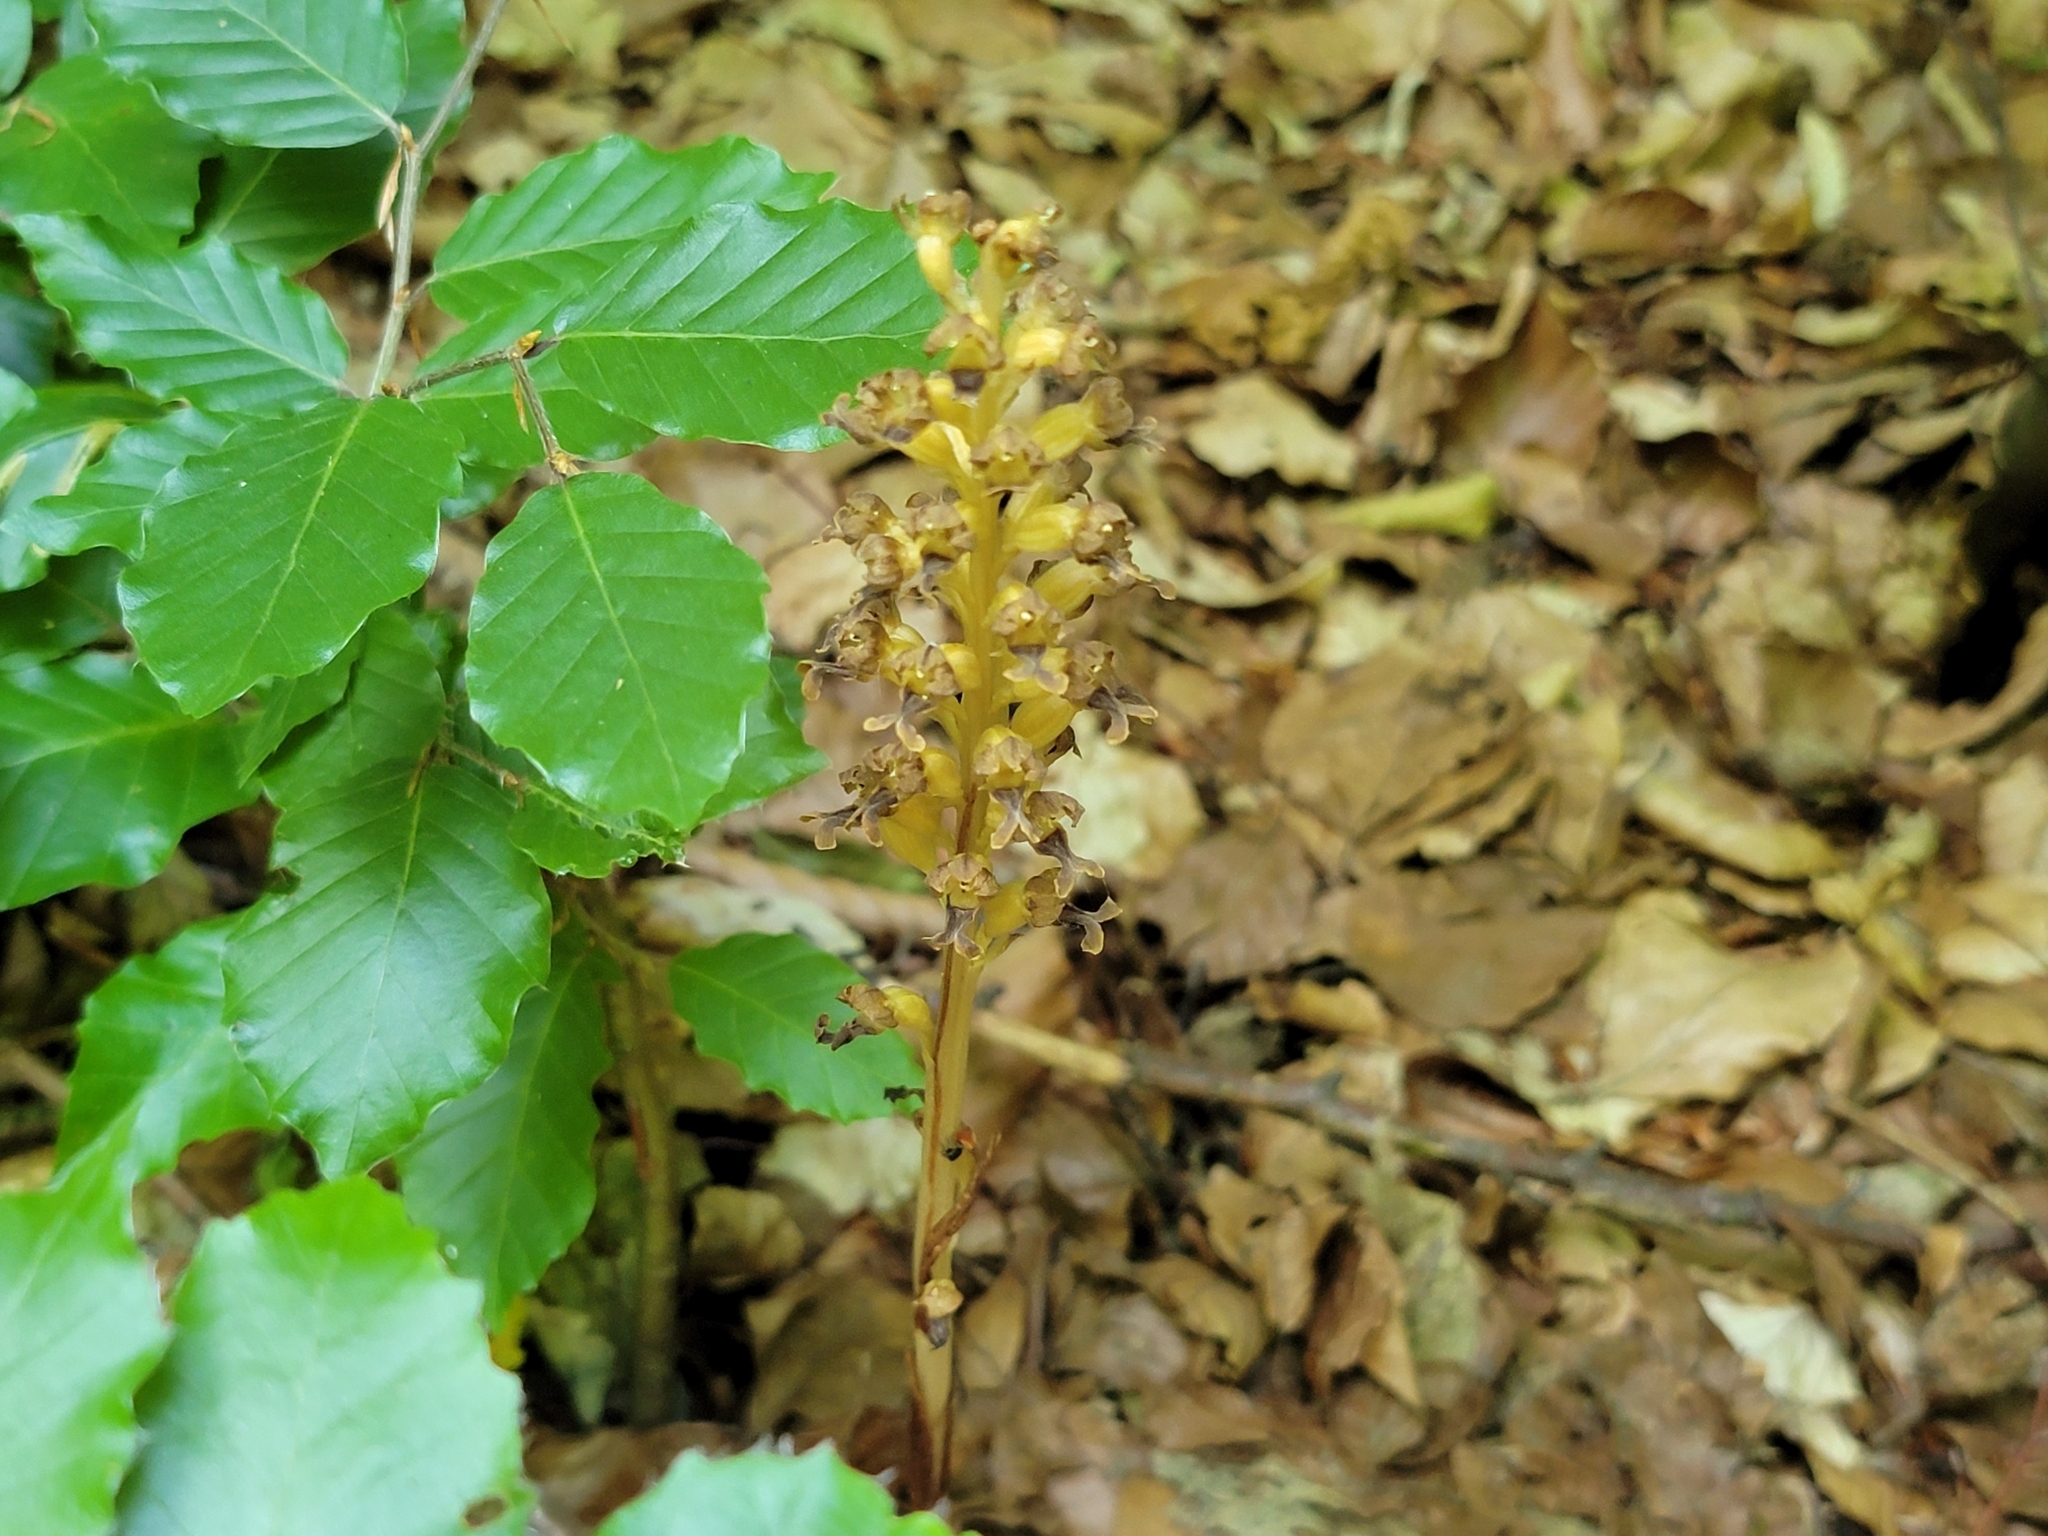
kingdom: Plantae
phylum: Tracheophyta
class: Liliopsida
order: Asparagales
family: Orchidaceae
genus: Neottia
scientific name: Neottia nidus-avis
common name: Bird's-nest orchid
